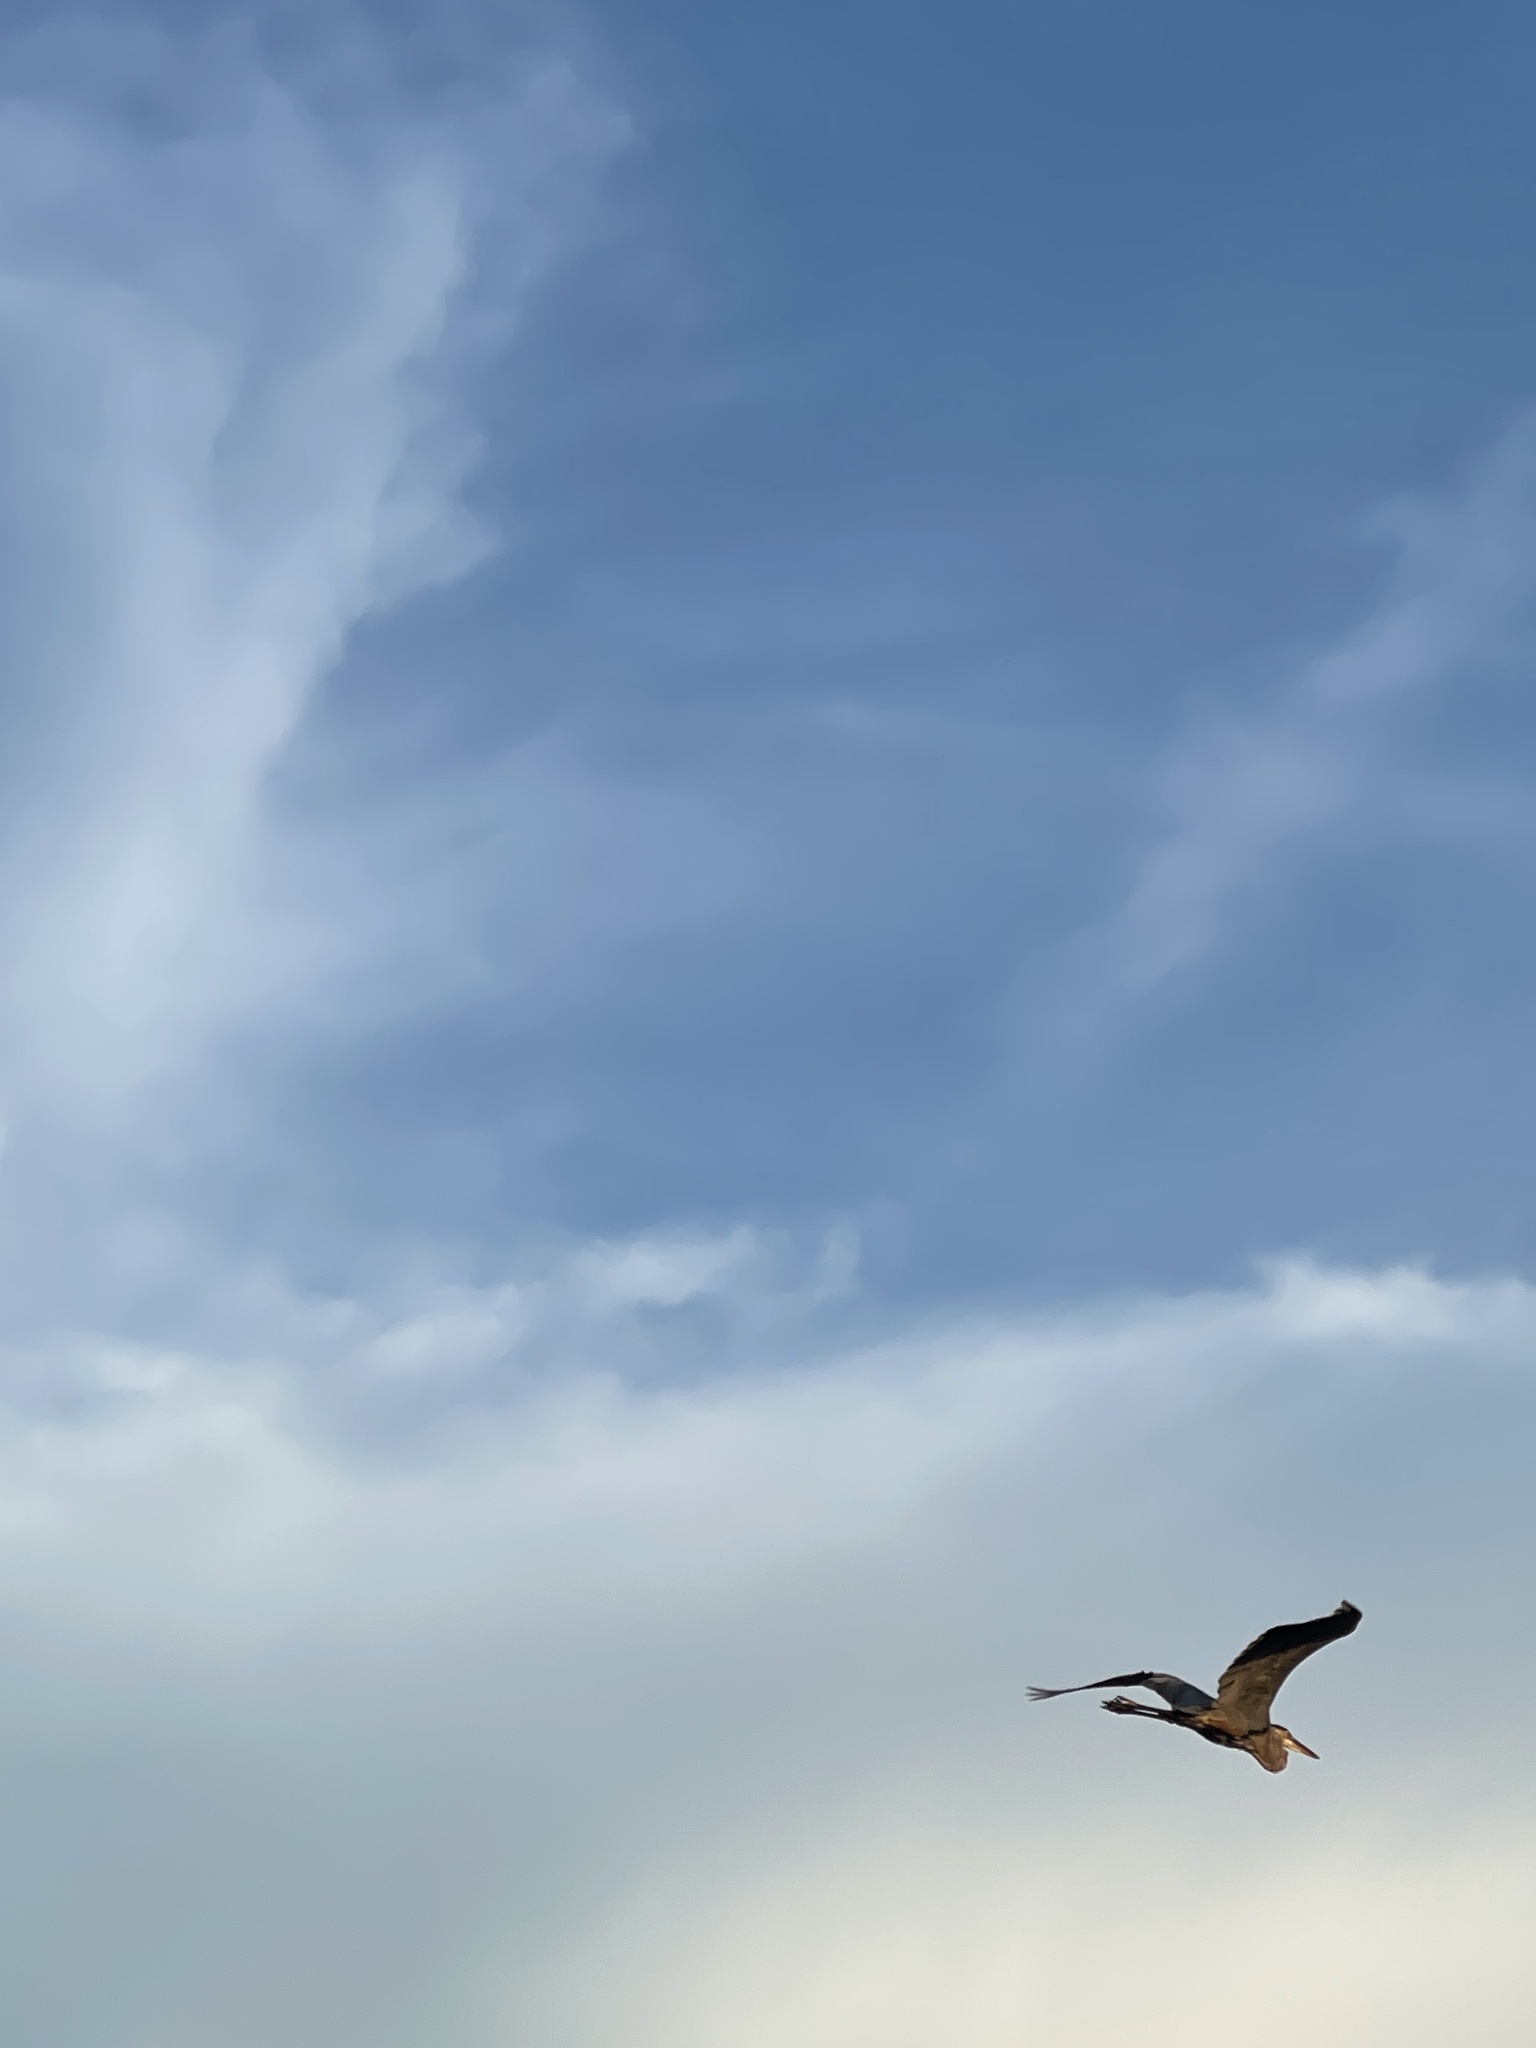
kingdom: Animalia
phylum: Chordata
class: Aves
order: Pelecaniformes
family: Ardeidae
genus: Ardea
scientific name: Ardea herodias
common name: Great blue heron
